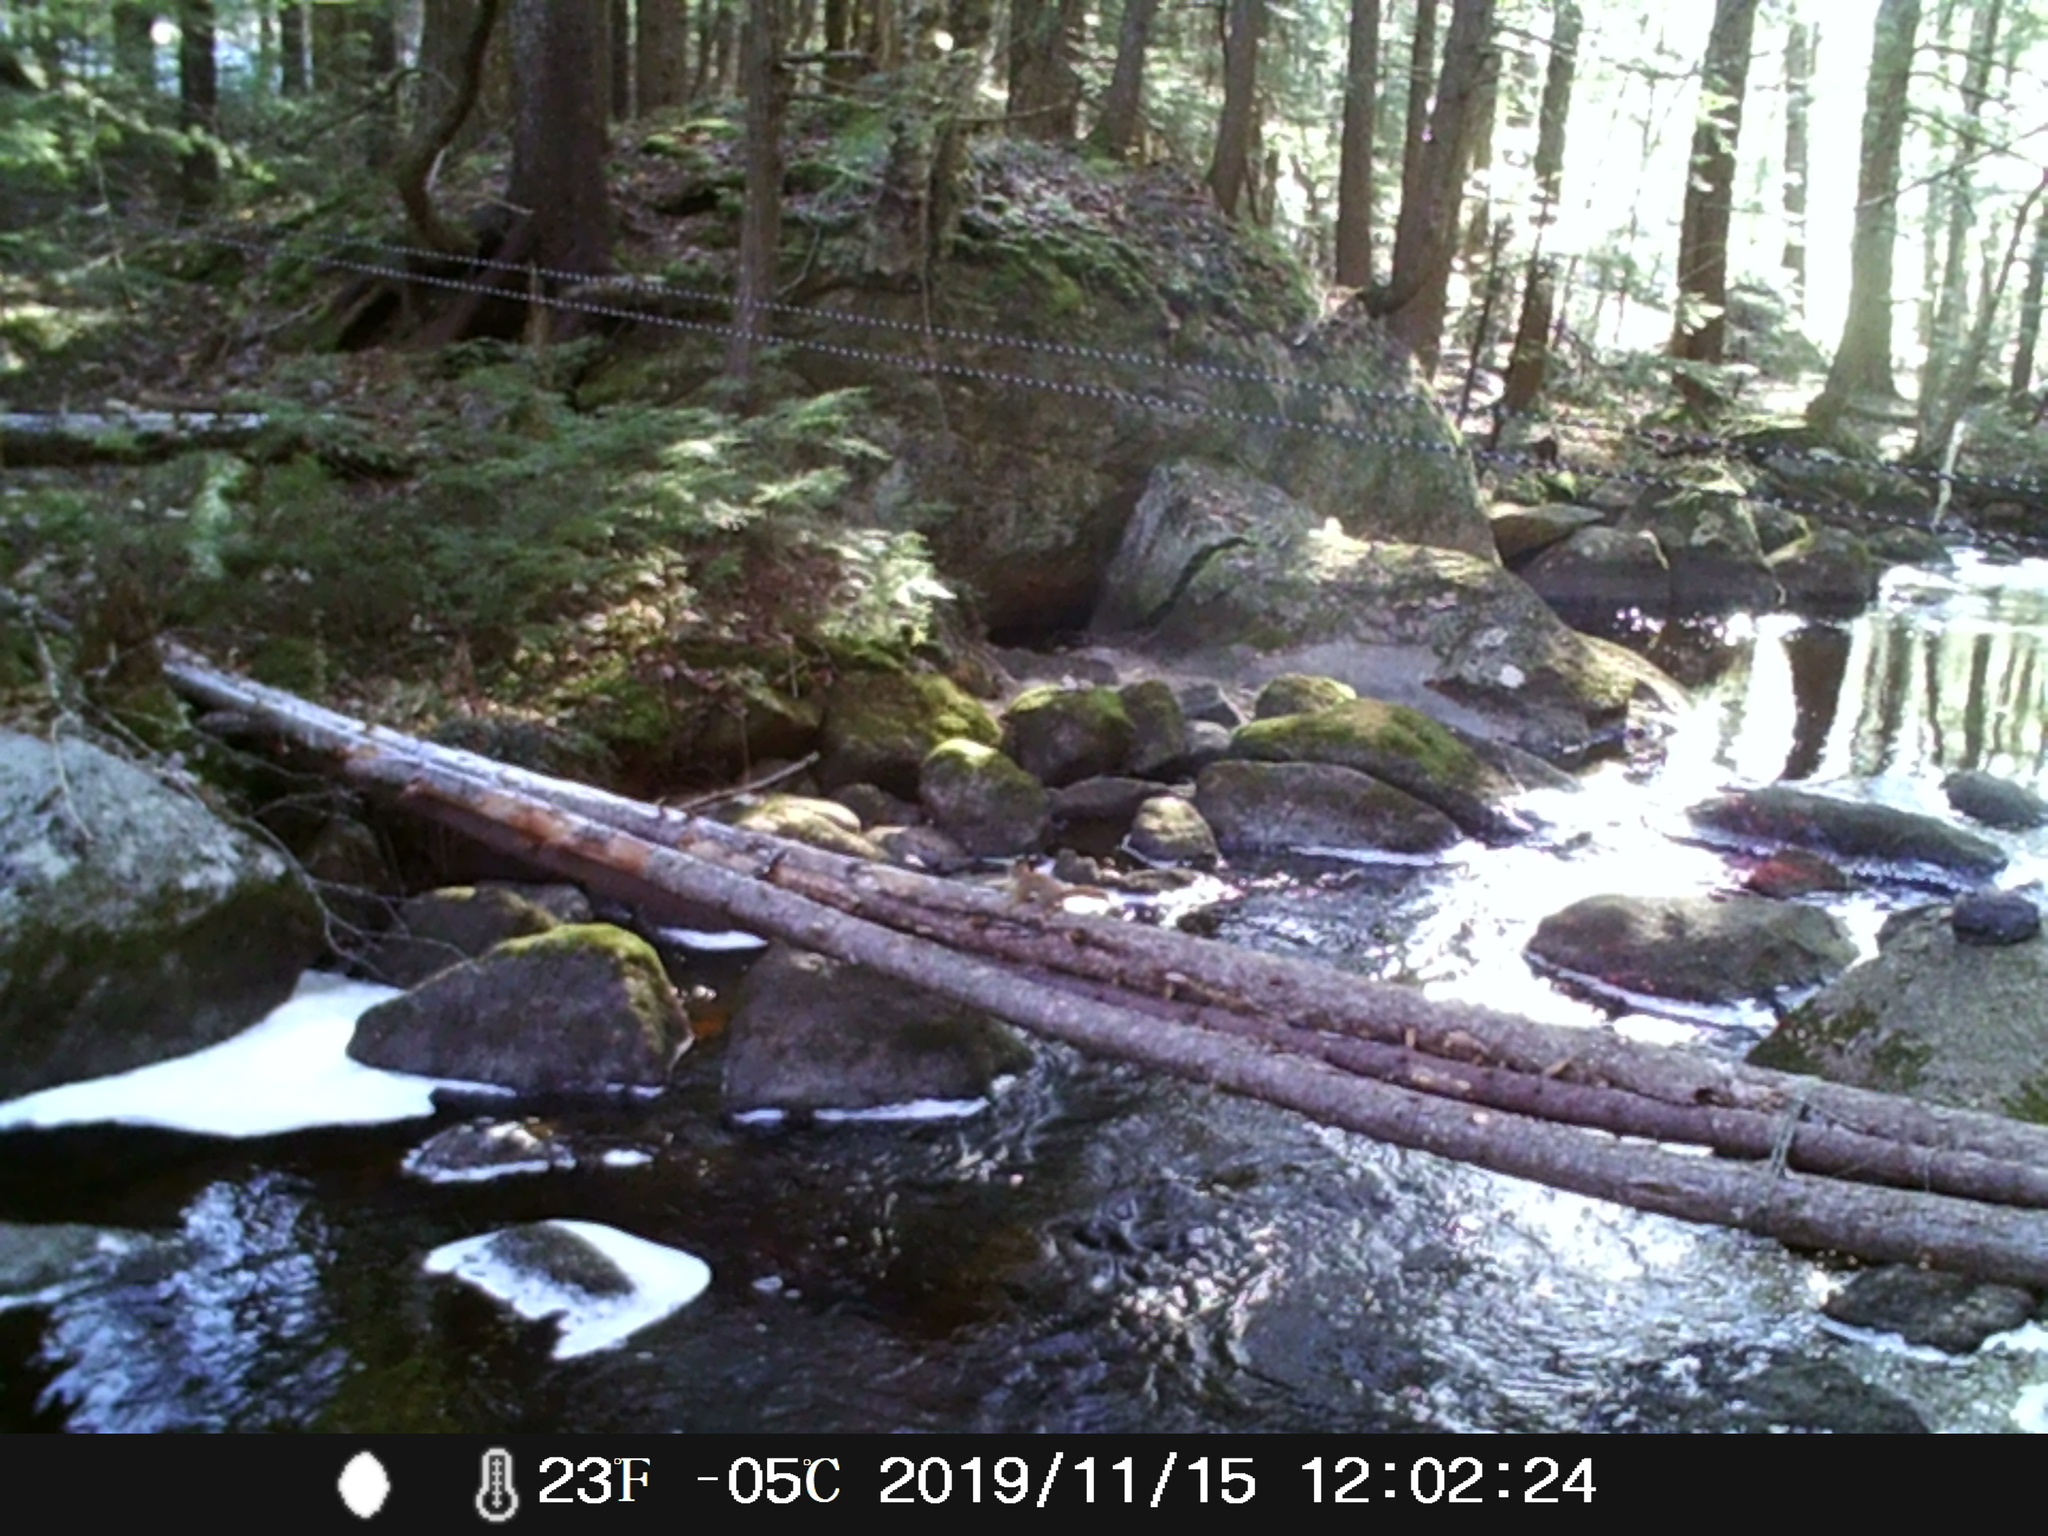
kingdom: Animalia
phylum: Chordata
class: Mammalia
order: Rodentia
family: Sciuridae
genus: Tamiasciurus
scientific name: Tamiasciurus hudsonicus
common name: Red squirrel
